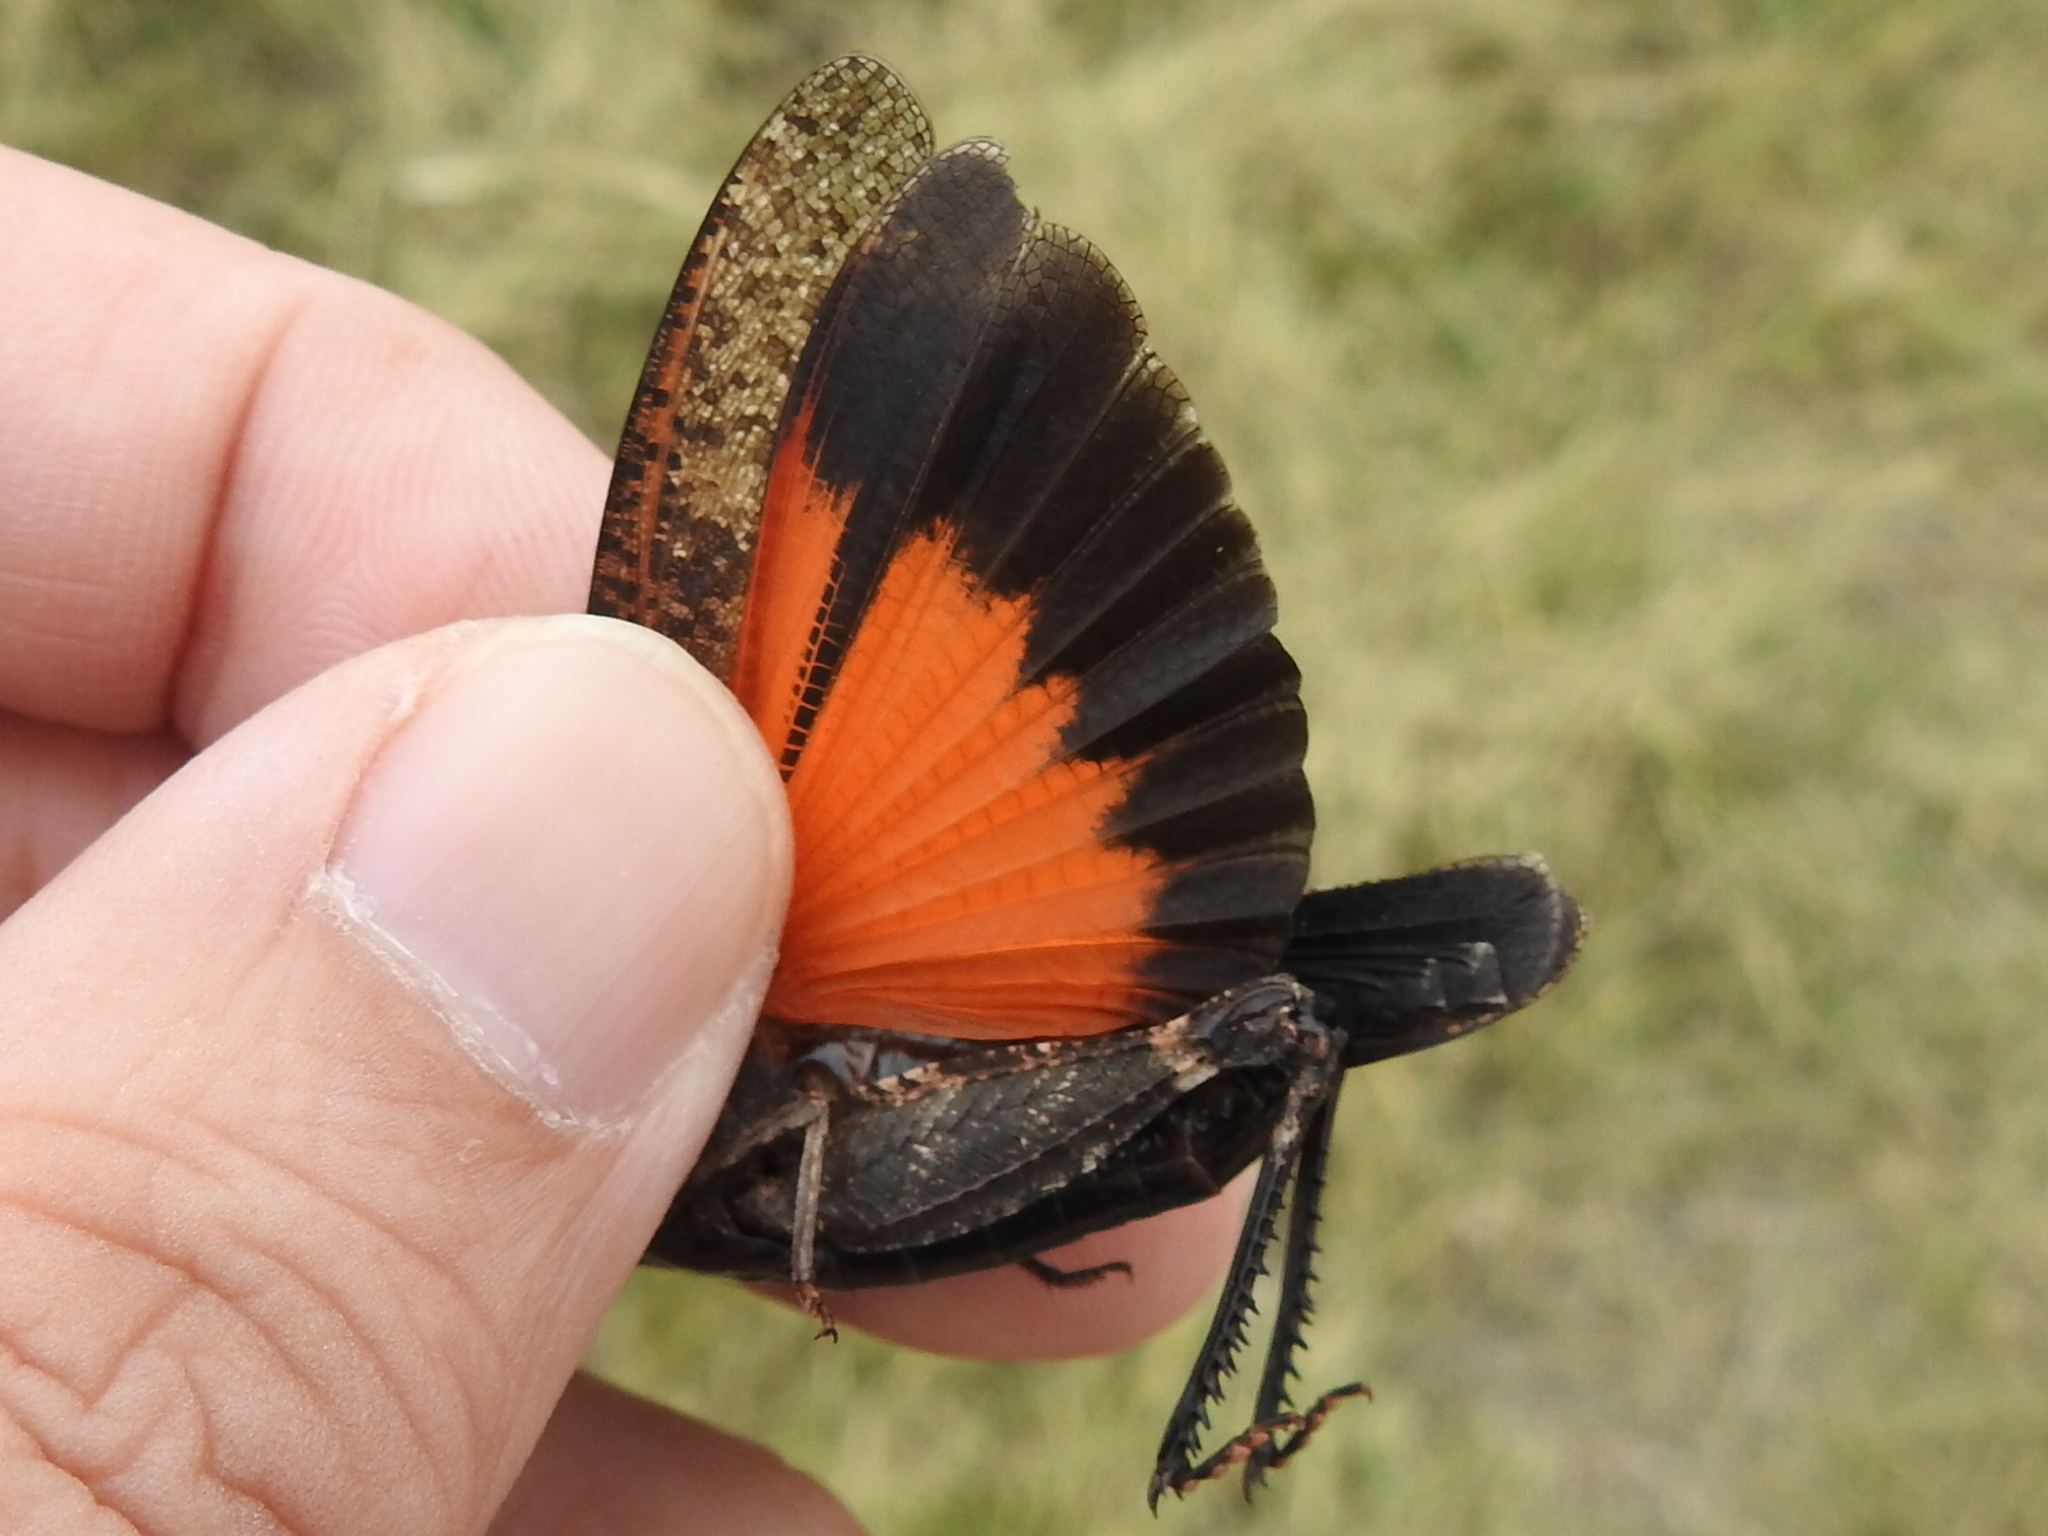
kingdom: Animalia
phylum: Arthropoda
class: Insecta
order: Orthoptera
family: Acrididae
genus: Arphia
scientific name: Arphia pseudo-nietana
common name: Red-winged grasshopper
